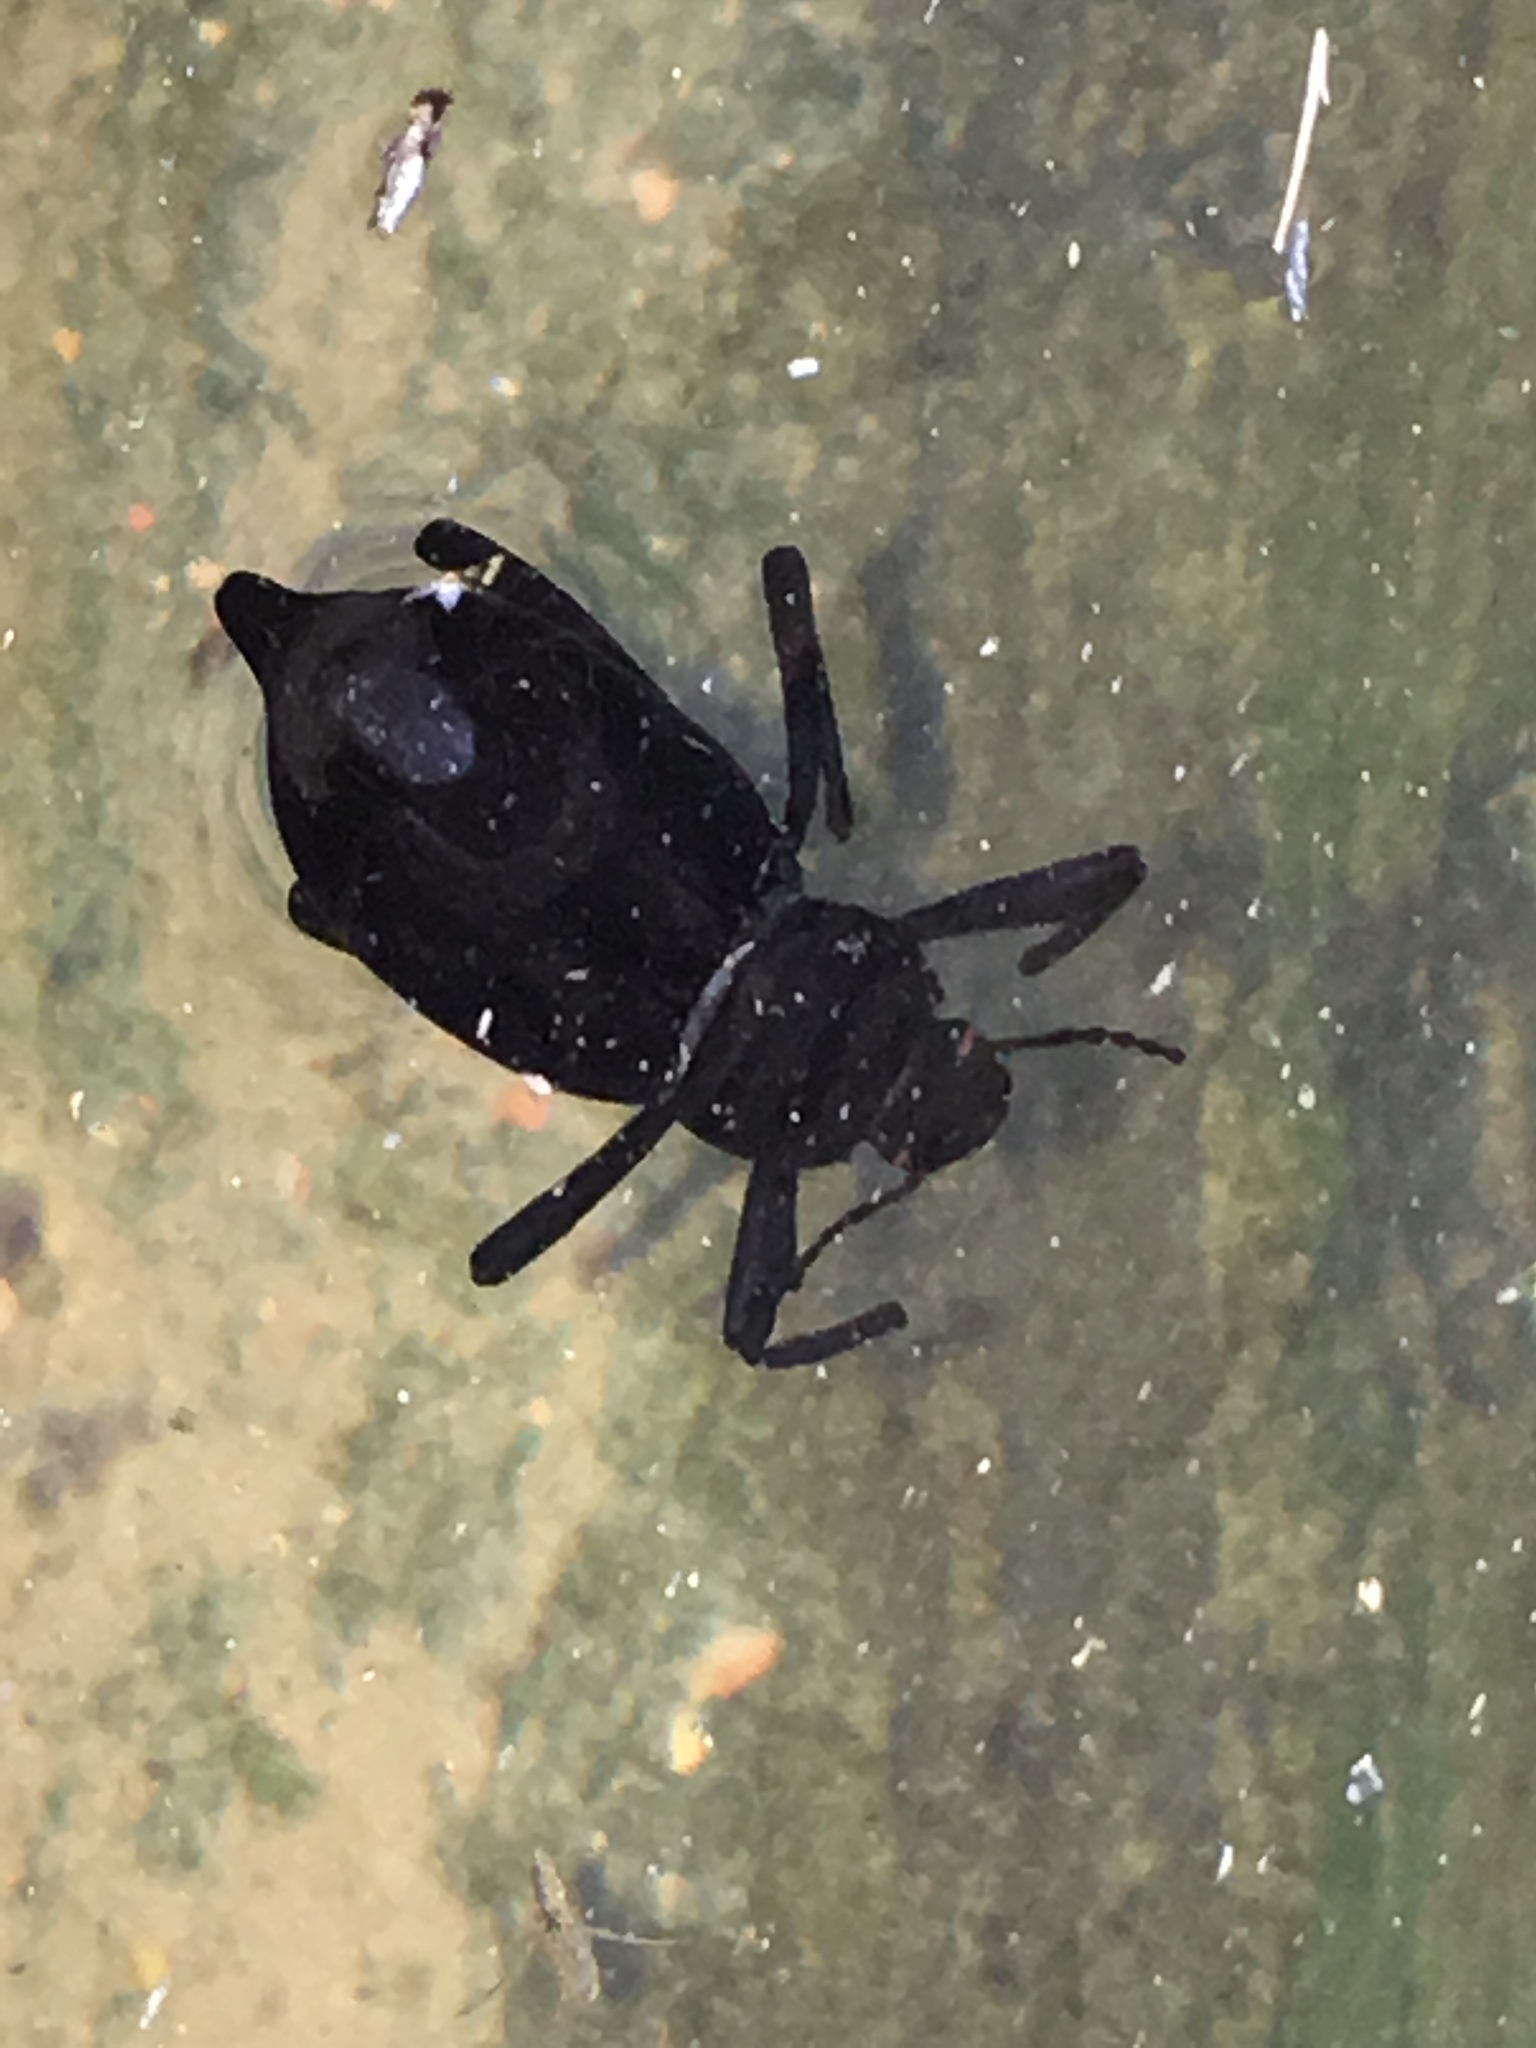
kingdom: Animalia
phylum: Arthropoda
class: Insecta
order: Coleoptera
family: Tenebrionidae
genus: Eleodes
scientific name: Eleodes spinipes
